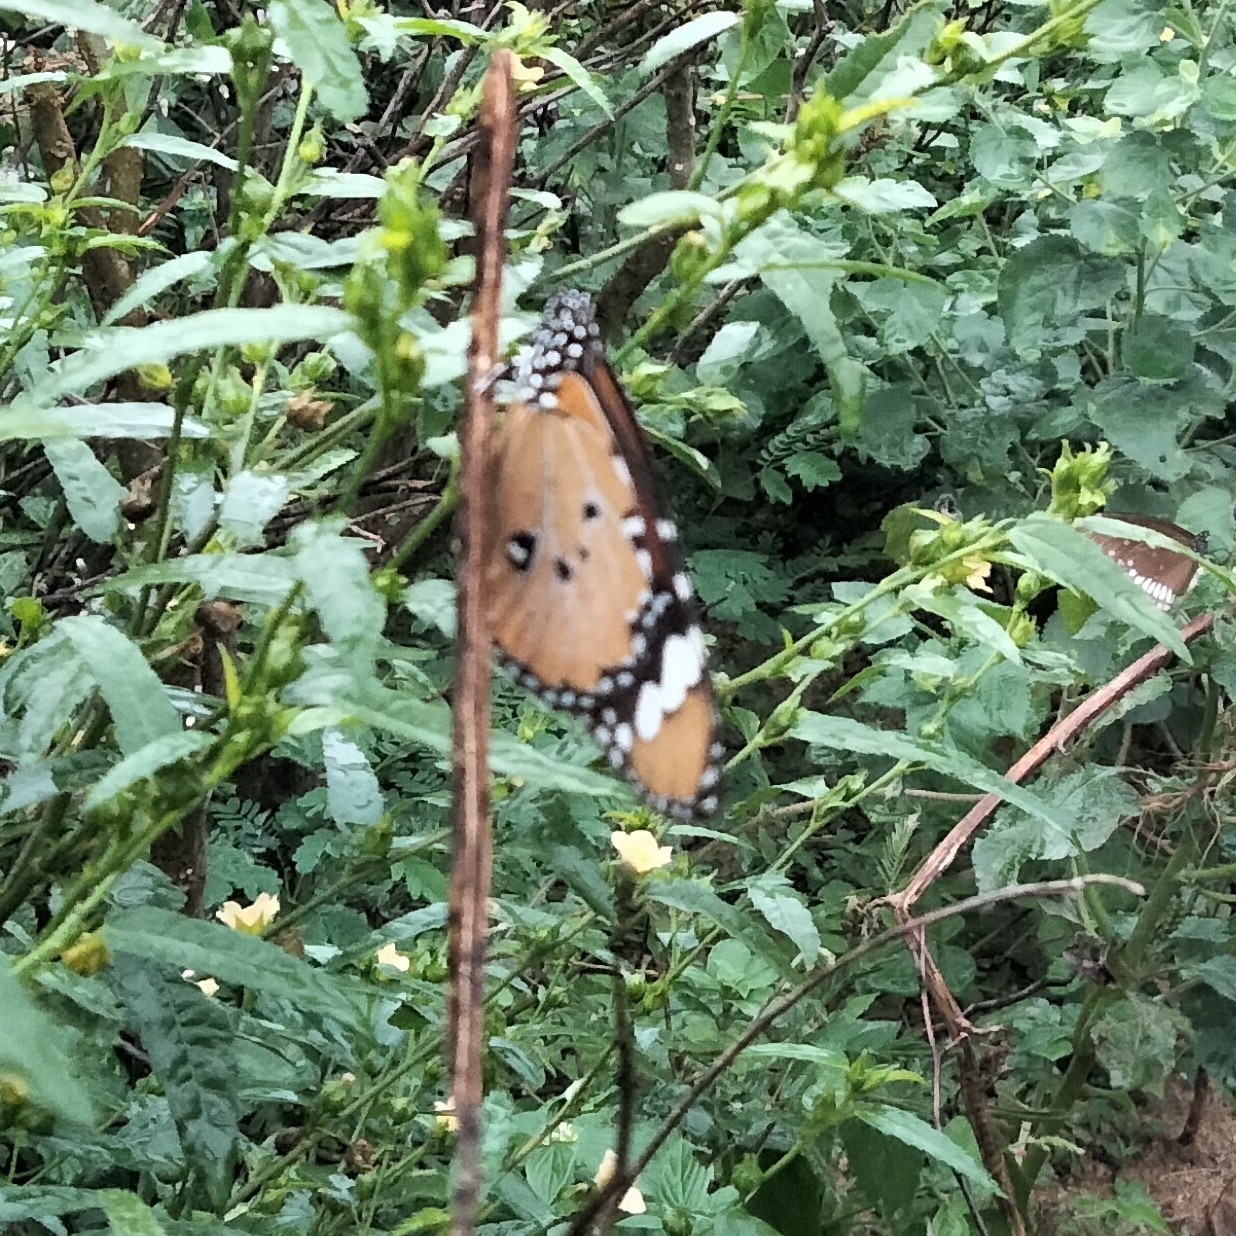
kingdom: Animalia
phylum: Arthropoda
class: Insecta
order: Lepidoptera
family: Nymphalidae
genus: Danaus
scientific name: Danaus chrysippus
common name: Plain tiger
